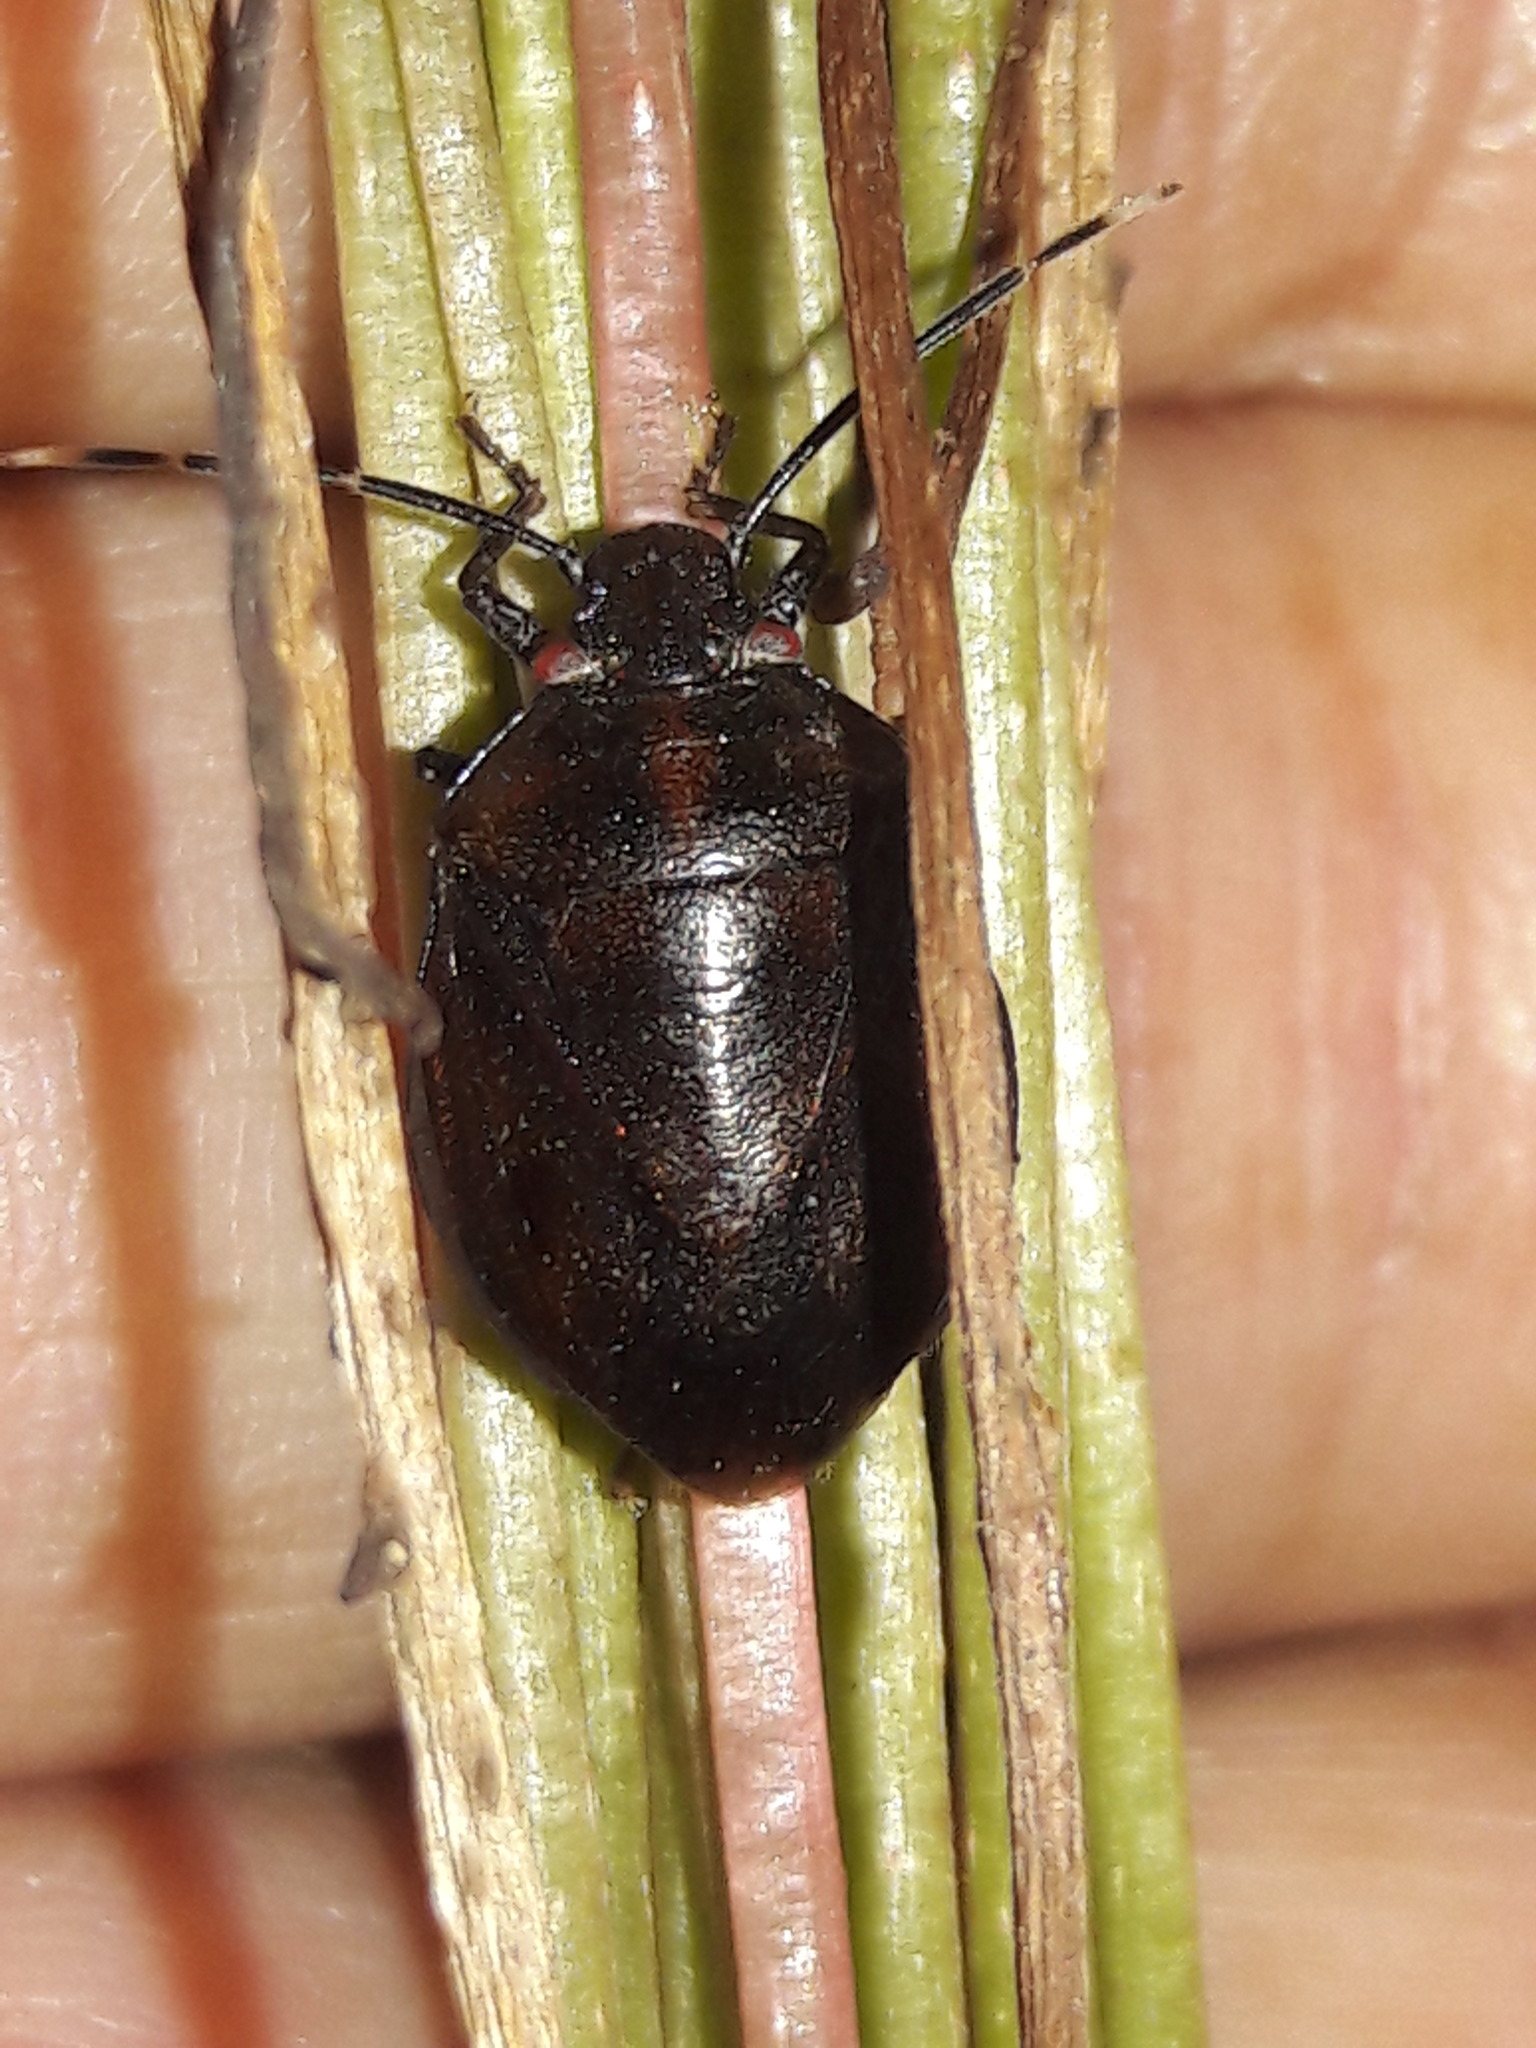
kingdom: Animalia
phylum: Arthropoda
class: Insecta
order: Hemiptera
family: Pentatomidae
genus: Antiteuchus
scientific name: Antiteuchus tripterus
